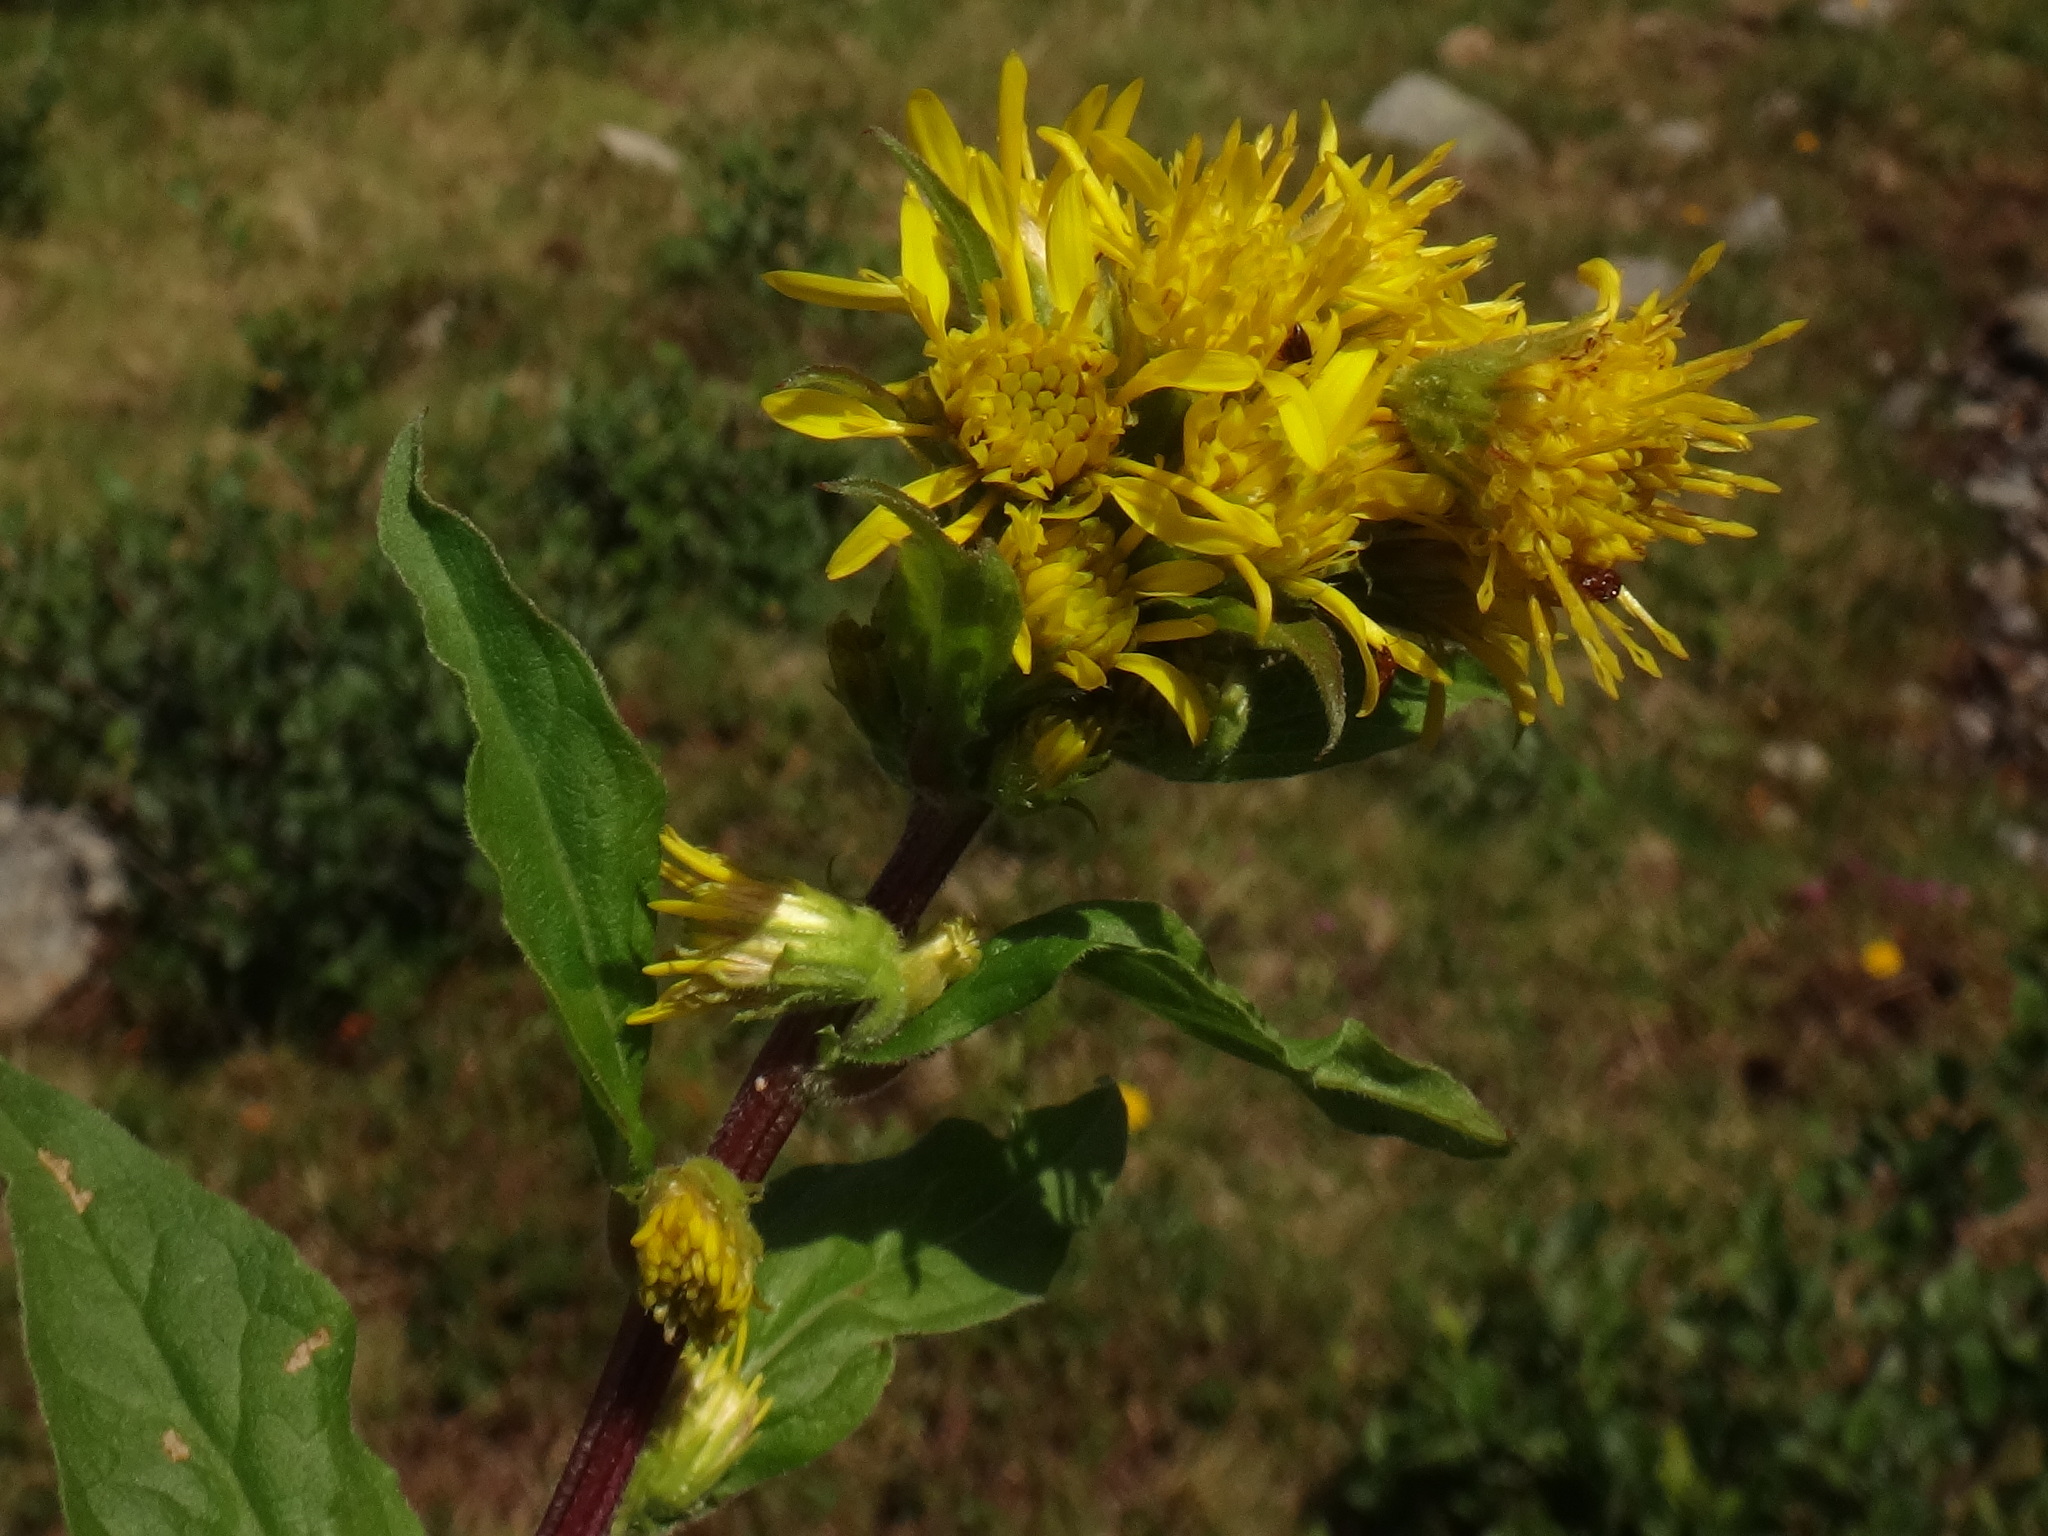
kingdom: Plantae
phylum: Tracheophyta
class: Magnoliopsida
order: Asterales
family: Asteraceae
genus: Solidago
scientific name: Solidago virgaurea
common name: Goldenrod
